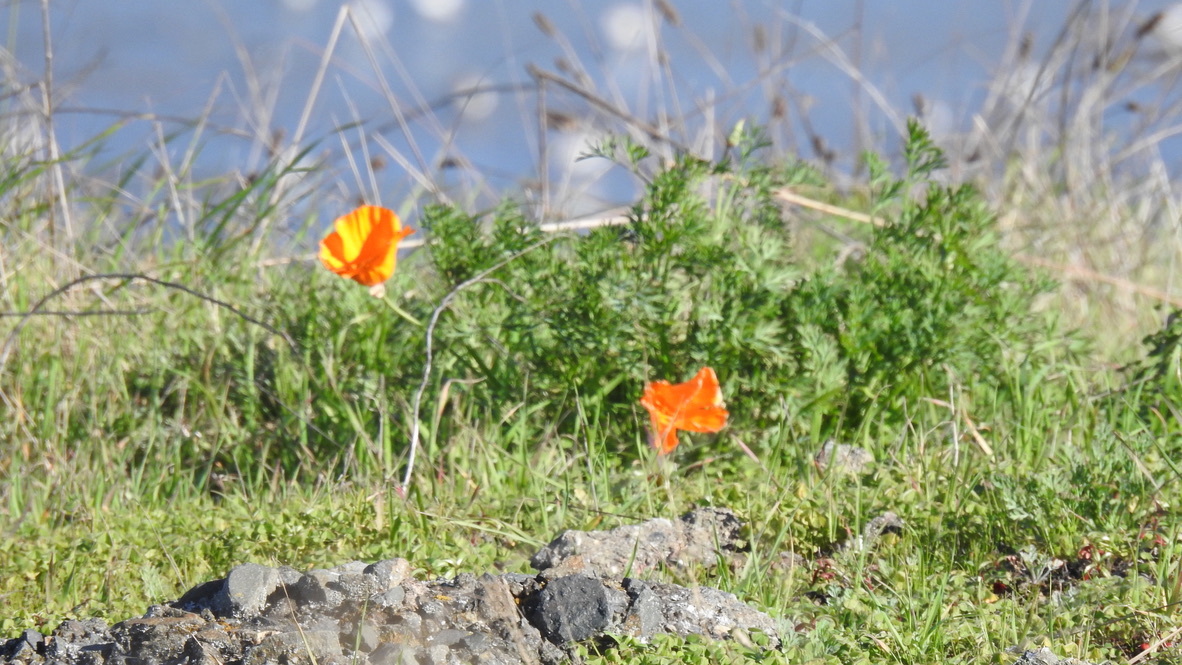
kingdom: Plantae
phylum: Tracheophyta
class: Magnoliopsida
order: Ranunculales
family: Papaveraceae
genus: Eschscholzia
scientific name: Eschscholzia californica
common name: California poppy
